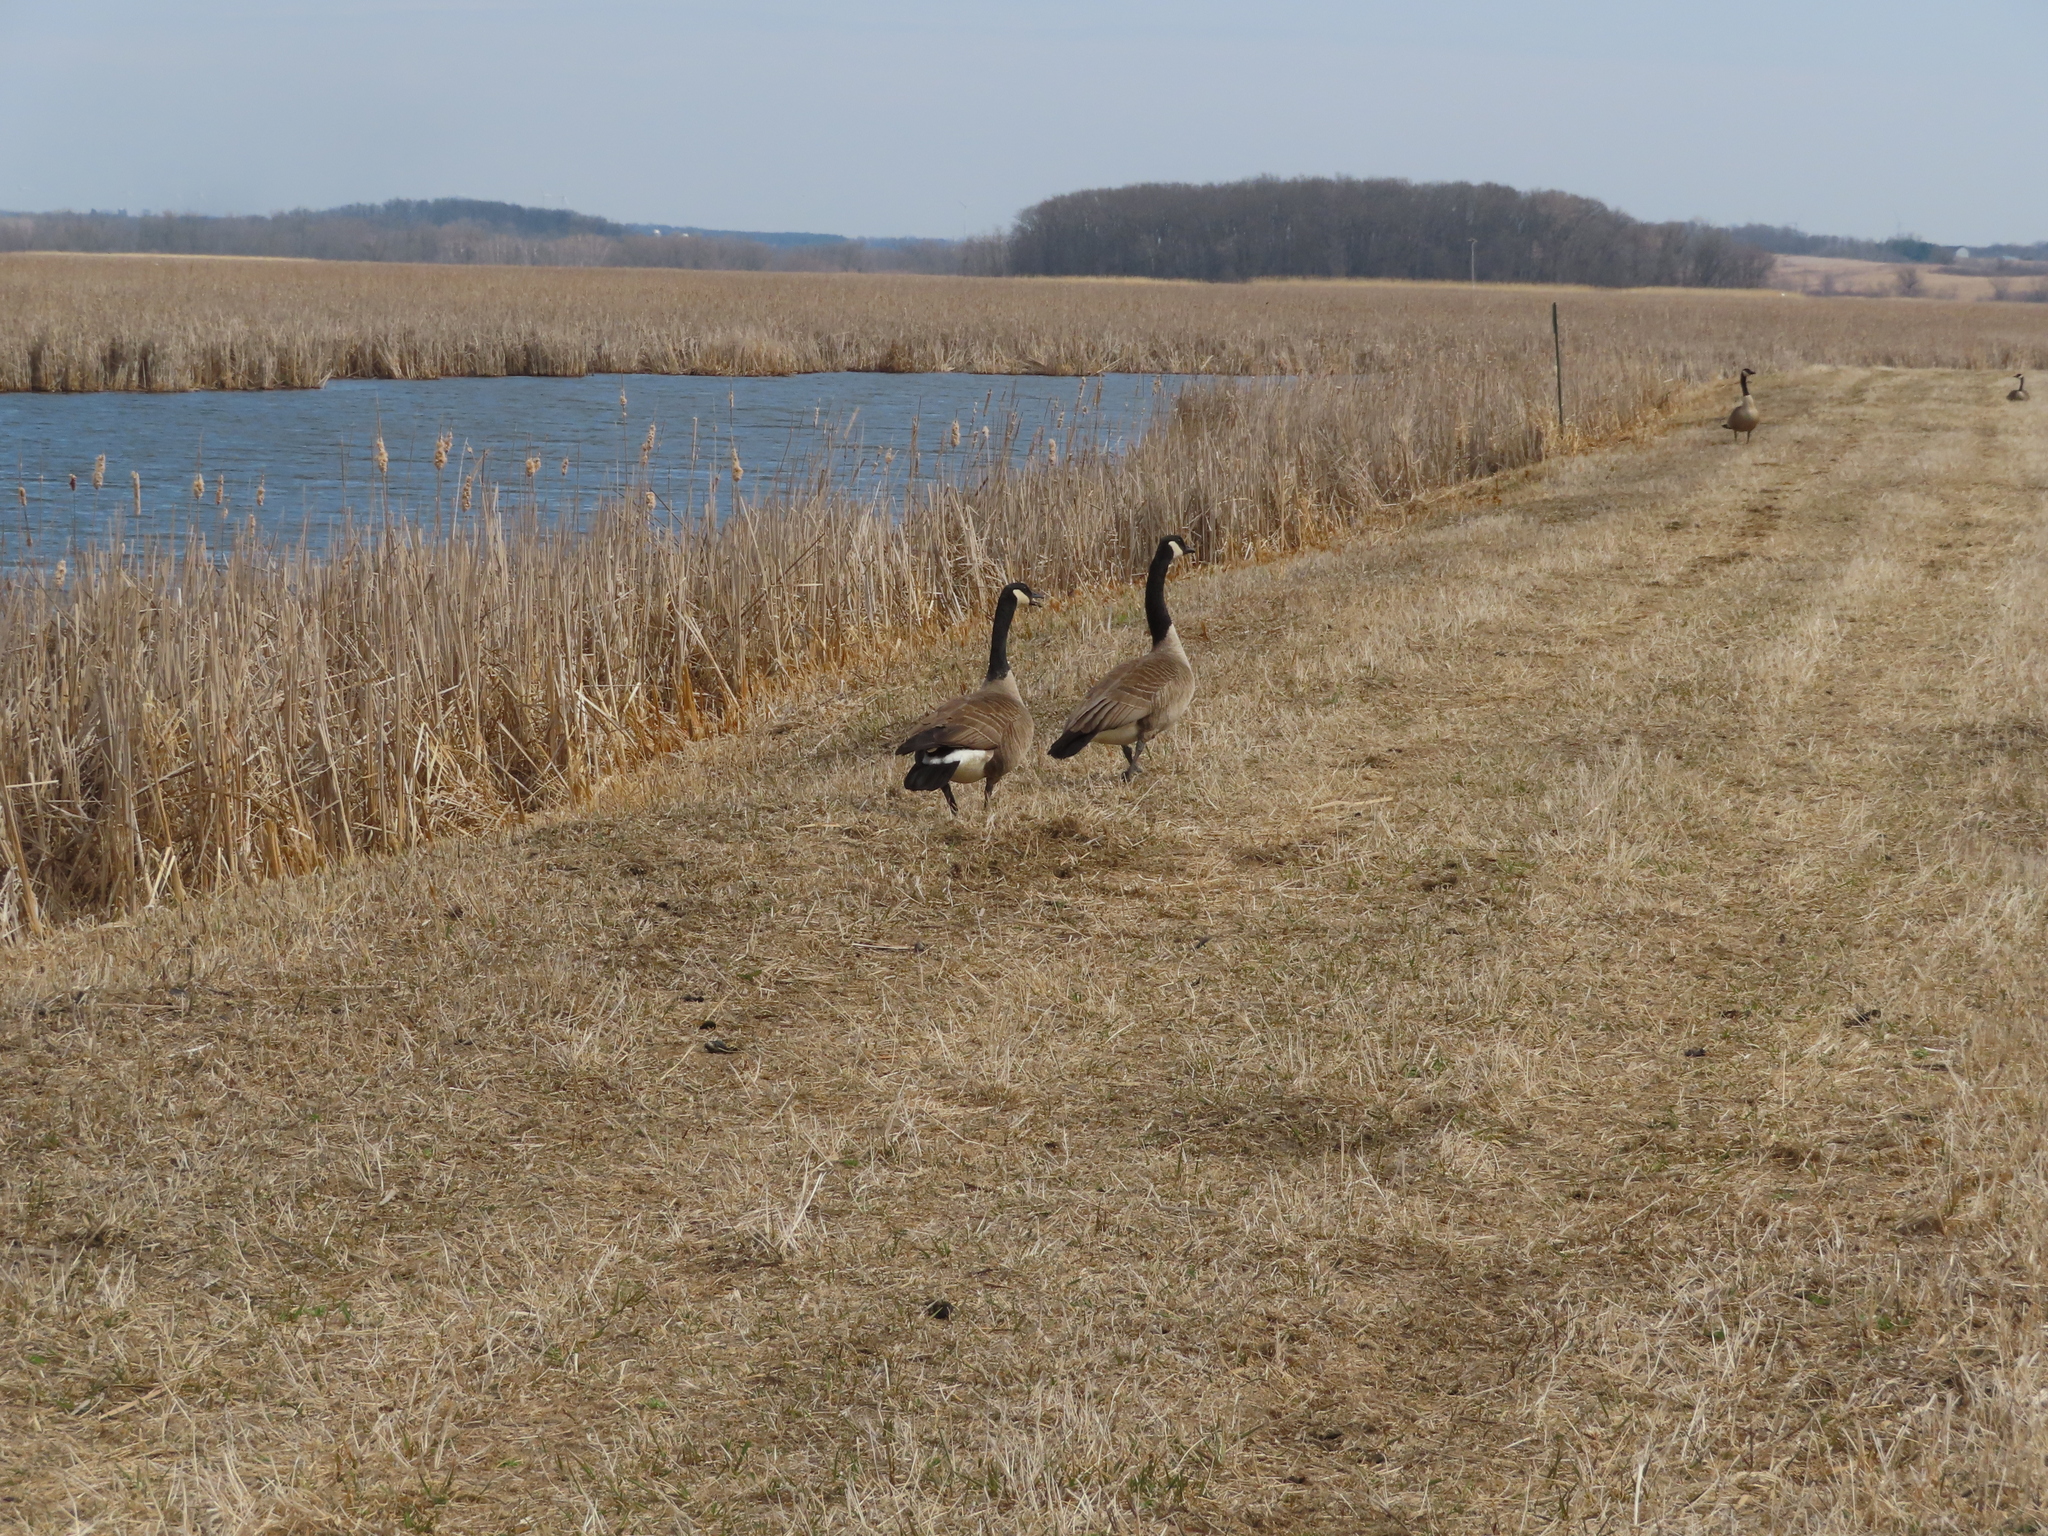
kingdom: Animalia
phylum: Chordata
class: Aves
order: Anseriformes
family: Anatidae
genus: Branta
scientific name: Branta canadensis
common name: Canada goose
